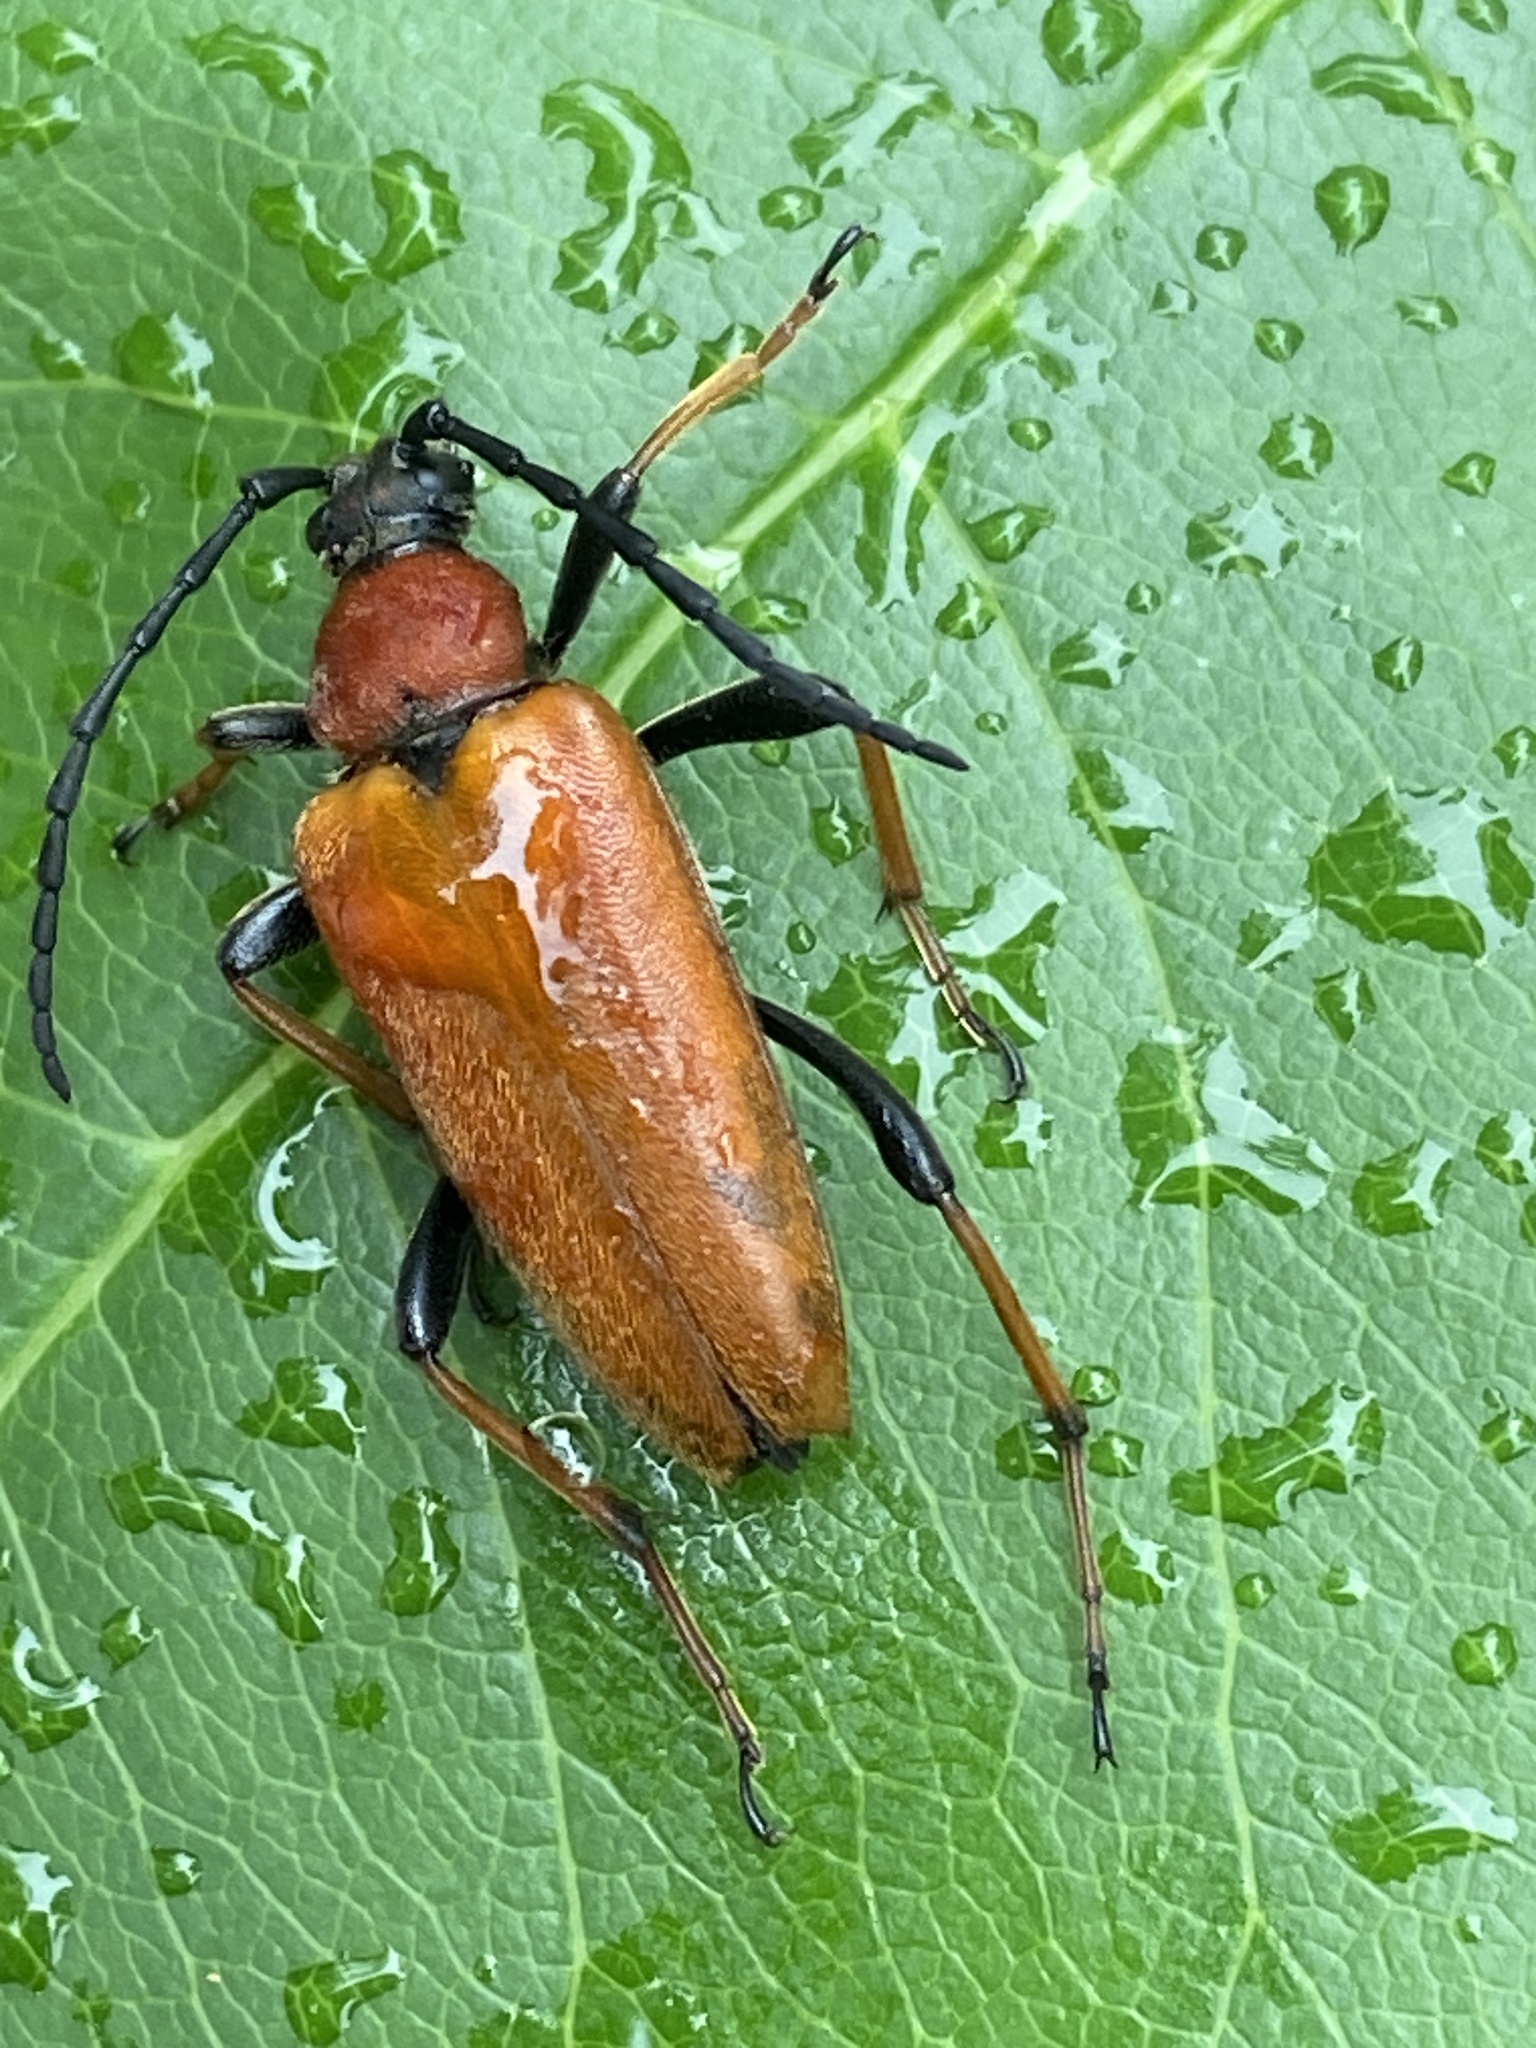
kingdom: Animalia
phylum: Arthropoda
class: Insecta
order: Coleoptera
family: Cerambycidae
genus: Stictoleptura
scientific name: Stictoleptura rubra
